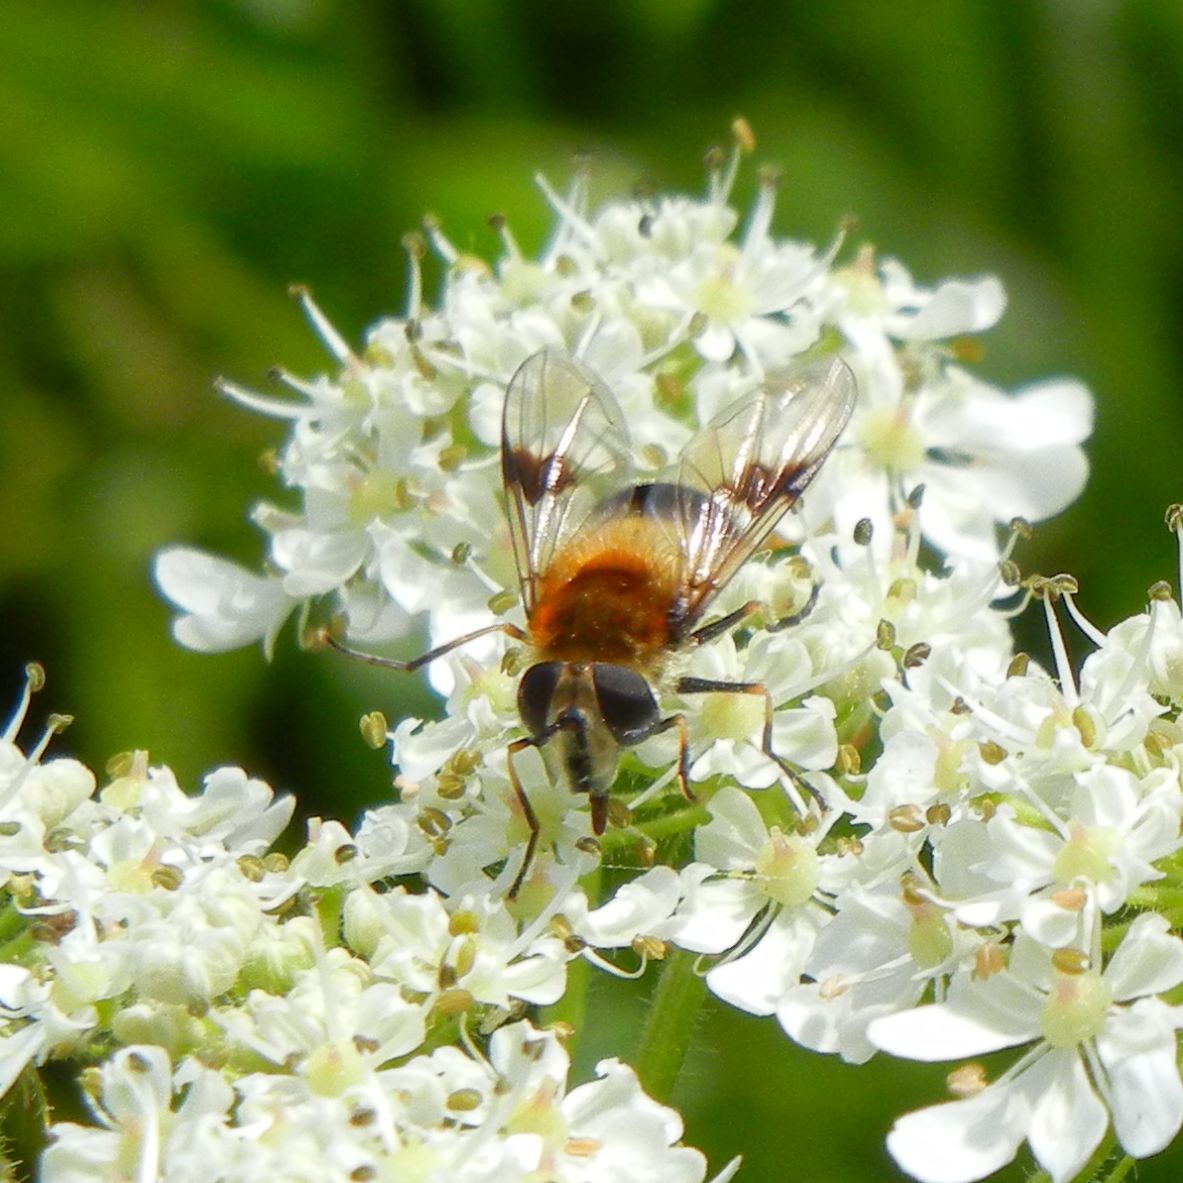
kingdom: Animalia
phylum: Arthropoda
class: Insecta
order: Diptera
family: Syrphidae
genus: Leucozona
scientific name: Leucozona lucorum
